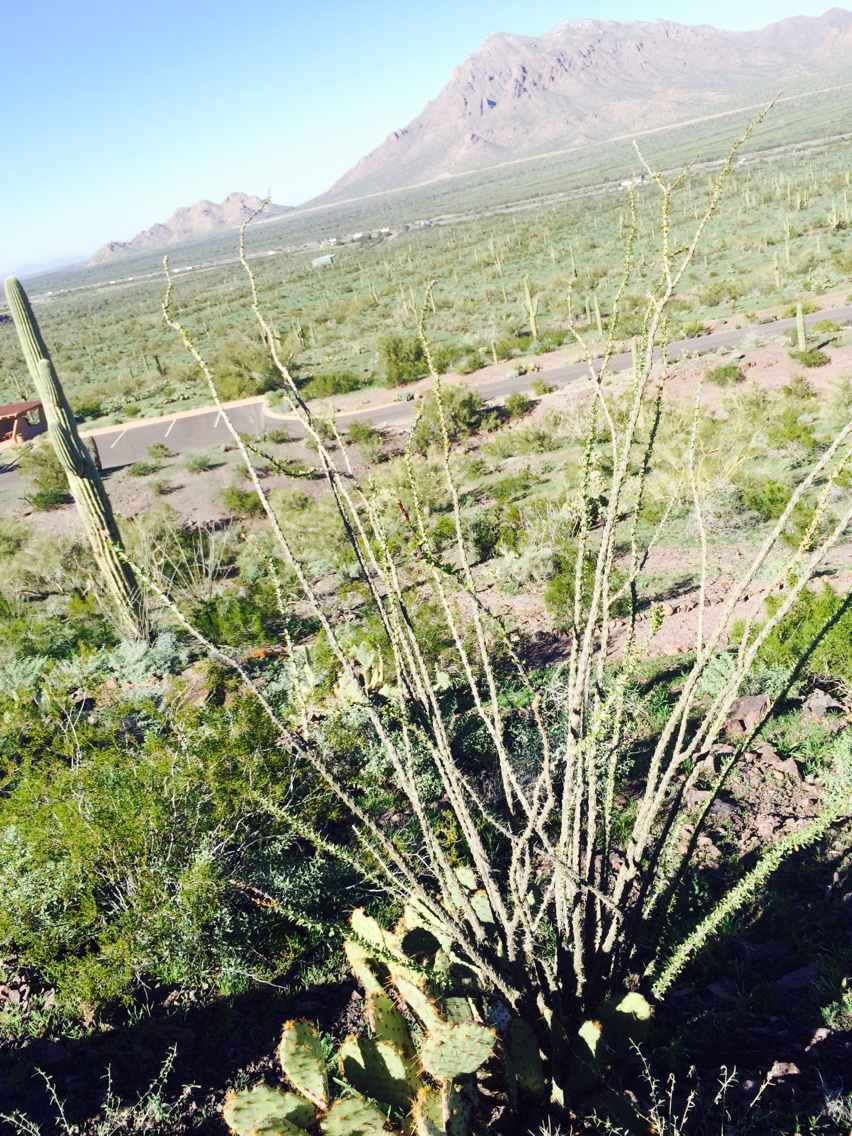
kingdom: Plantae
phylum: Tracheophyta
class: Magnoliopsida
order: Ericales
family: Fouquieriaceae
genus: Fouquieria
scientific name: Fouquieria splendens
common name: Vine-cactus
